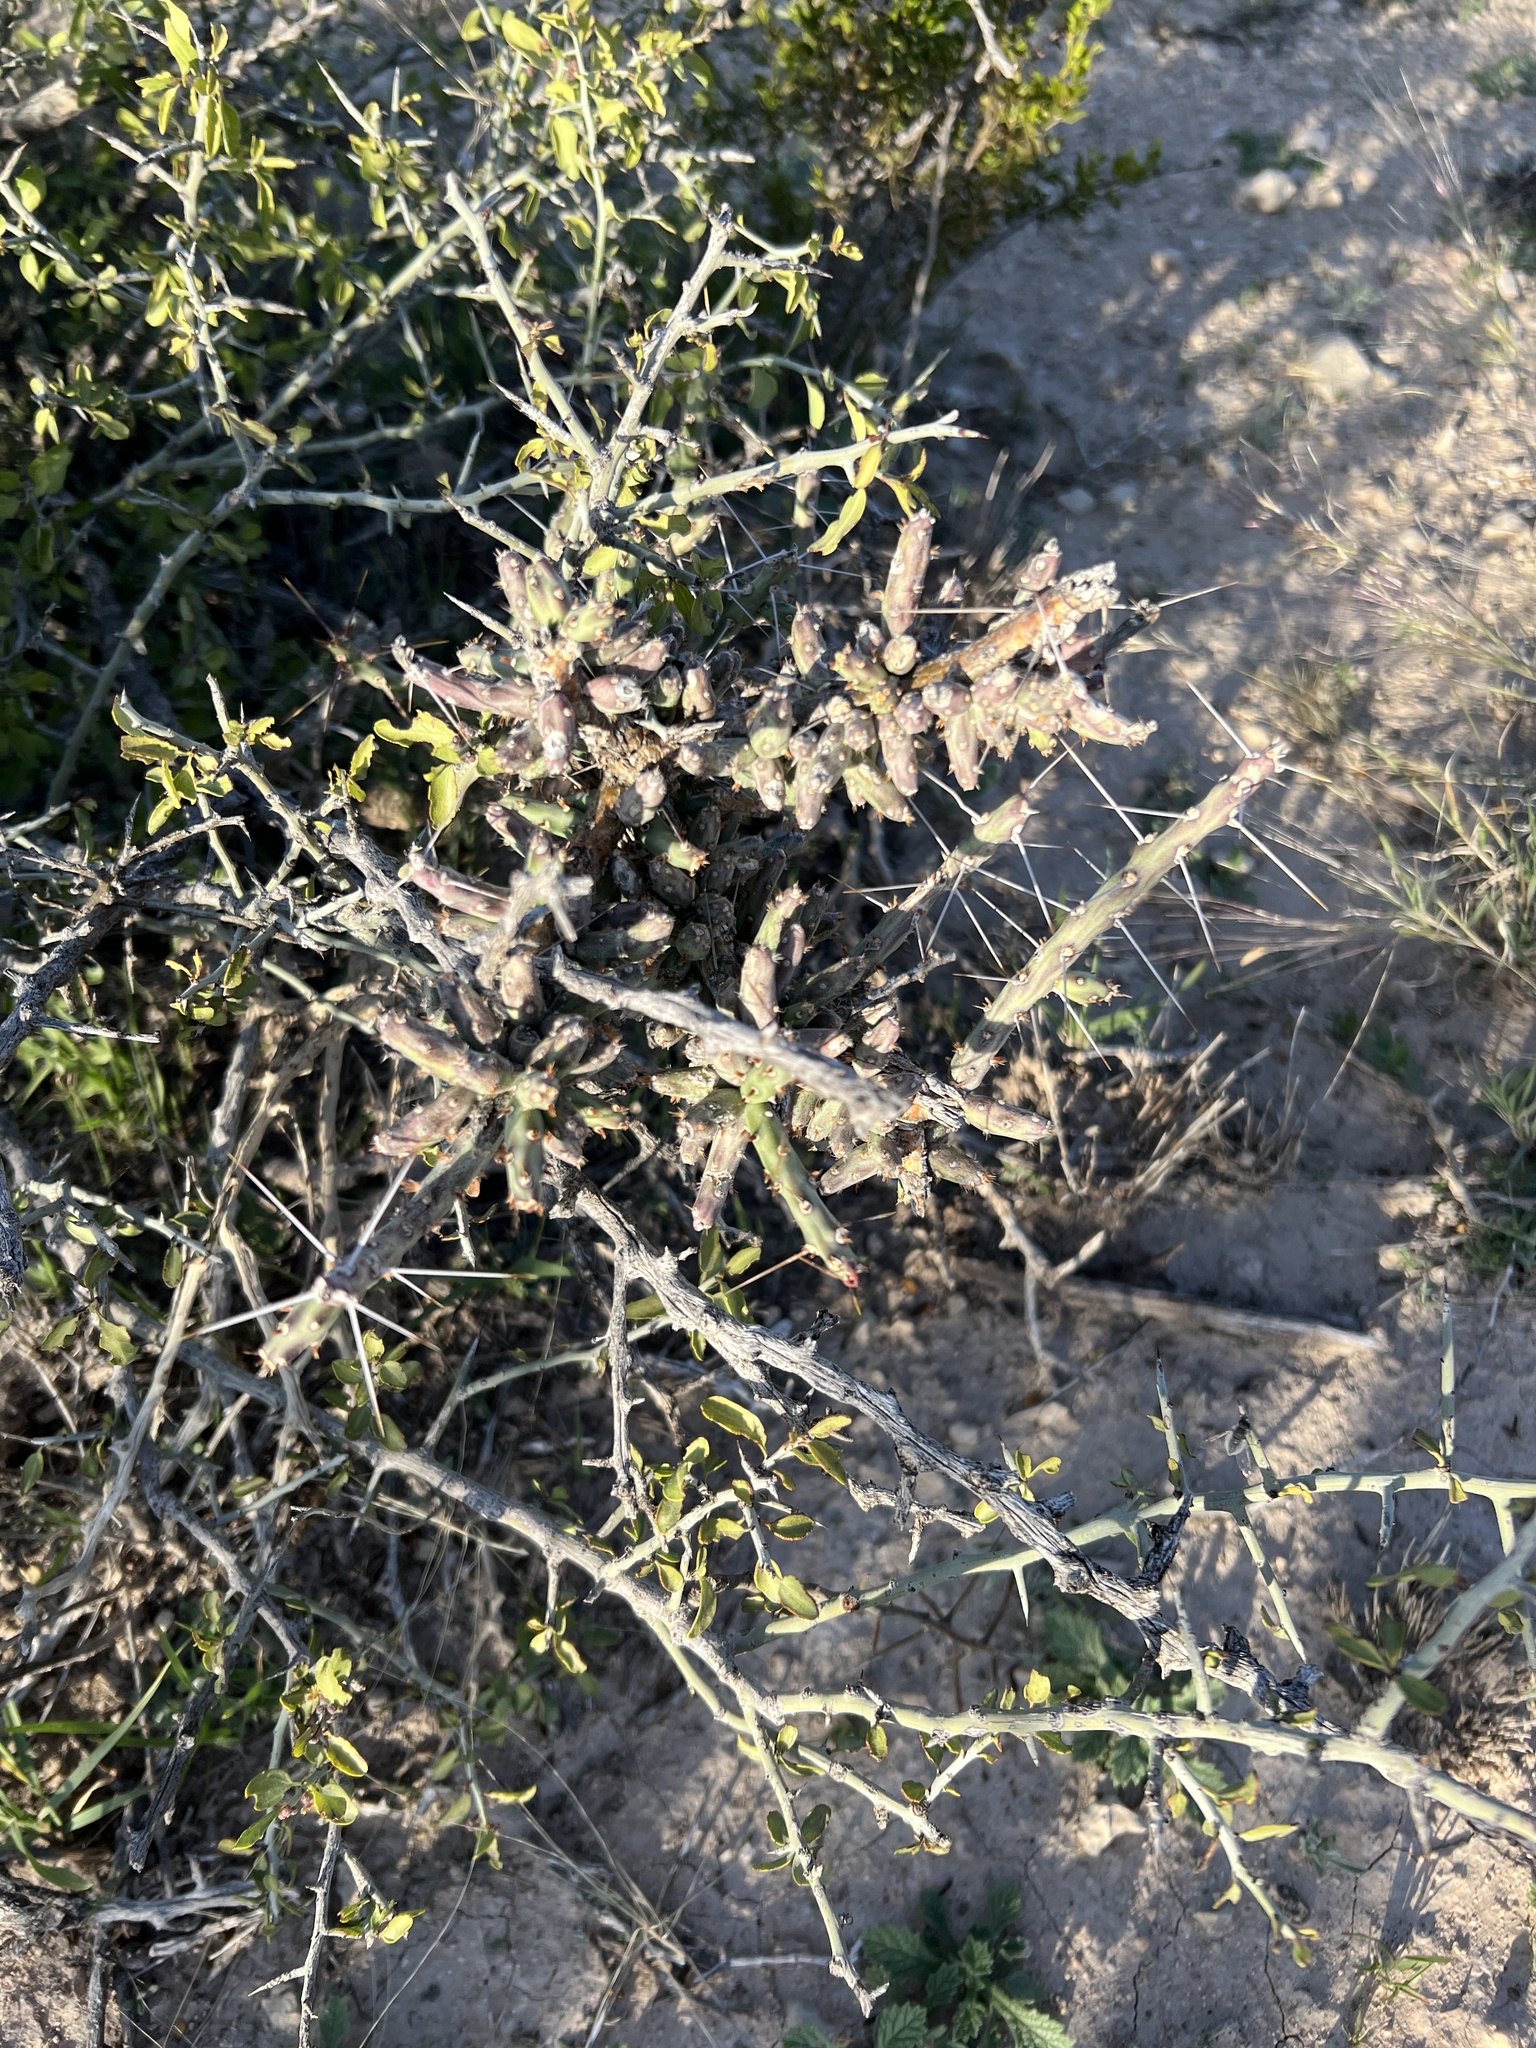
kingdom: Plantae
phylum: Tracheophyta
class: Magnoliopsida
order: Caryophyllales
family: Cactaceae
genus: Cylindropuntia
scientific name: Cylindropuntia leptocaulis
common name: Christmas cactus
